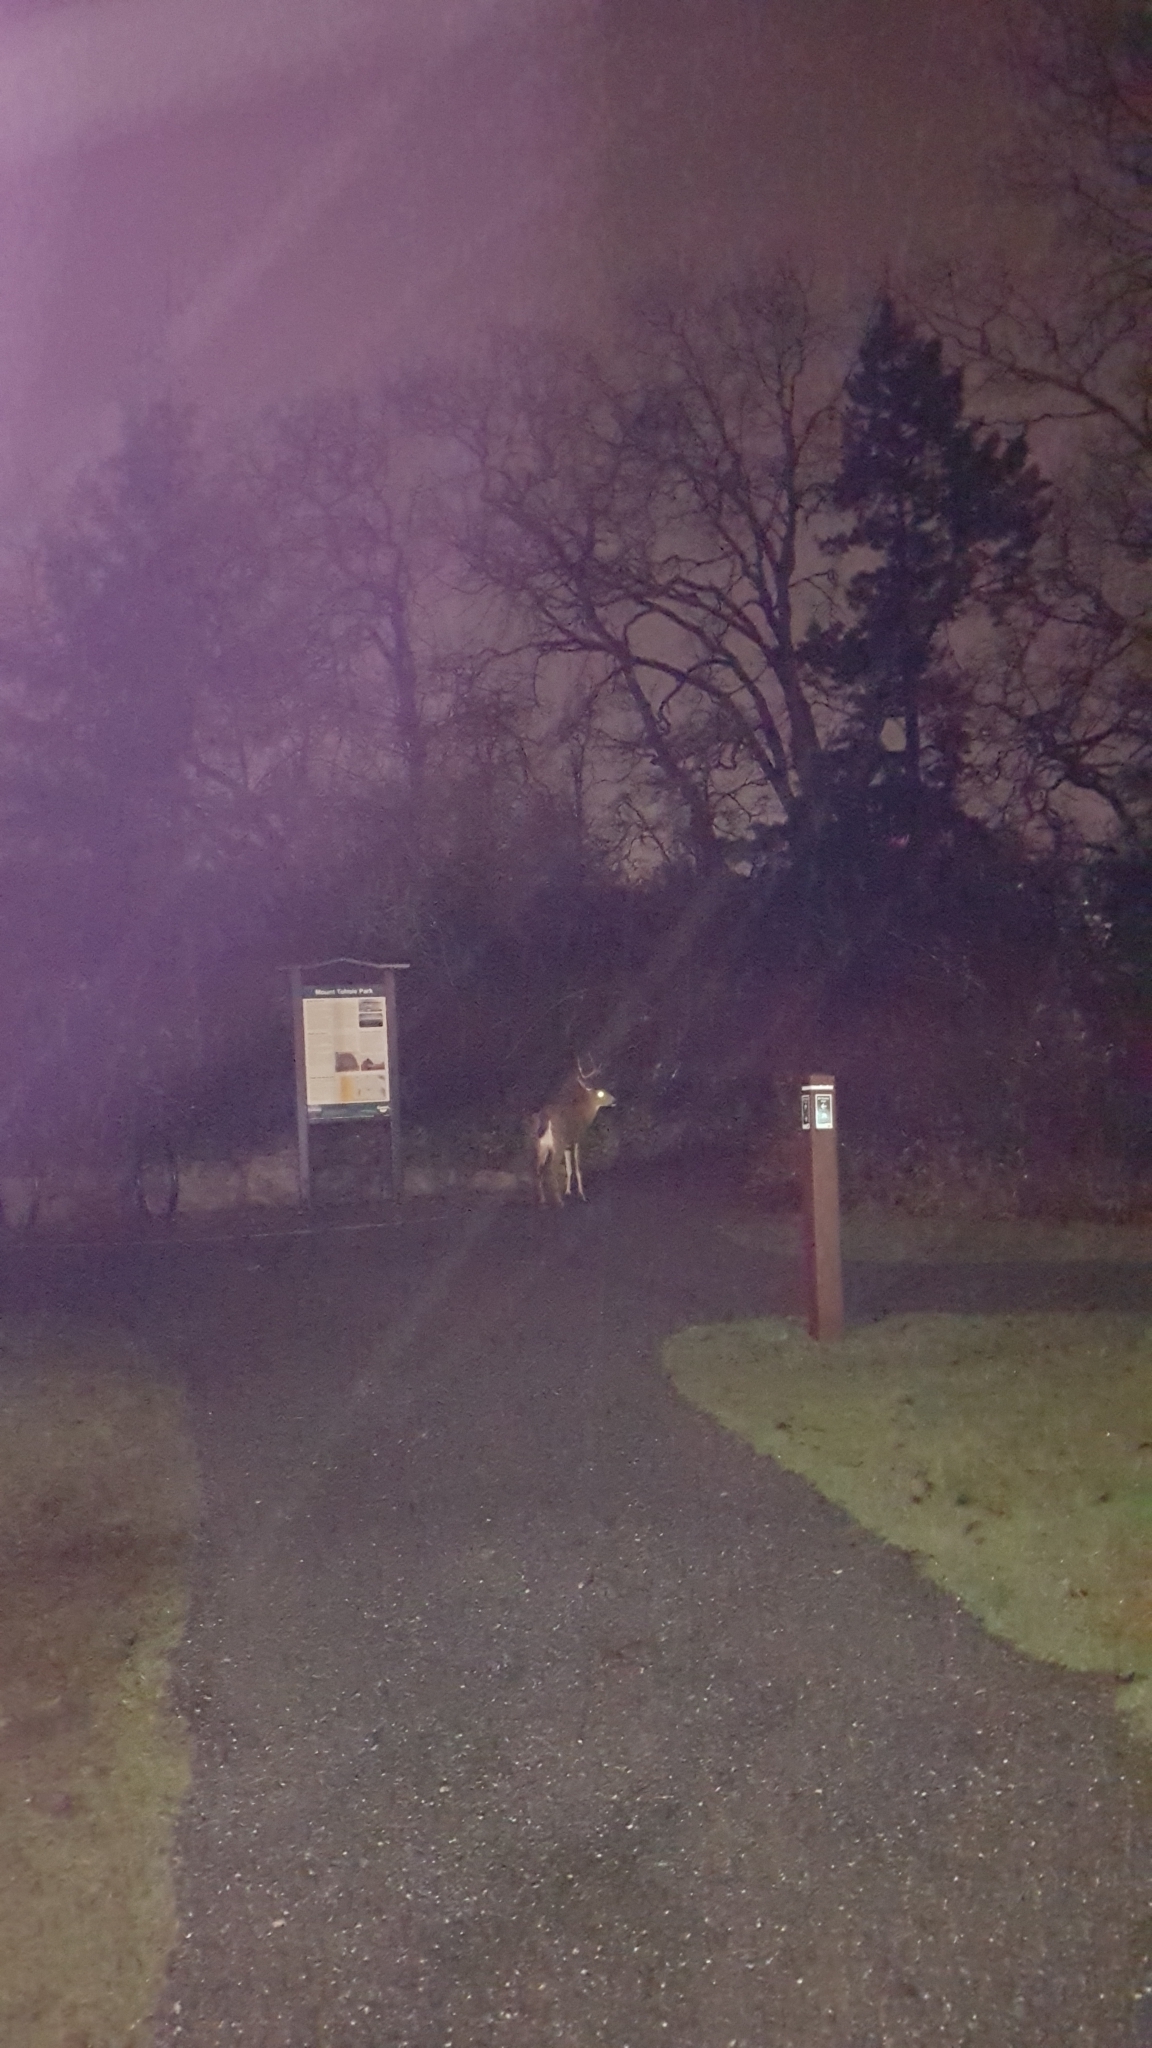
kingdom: Animalia
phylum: Chordata
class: Mammalia
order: Artiodactyla
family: Cervidae
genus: Odocoileus
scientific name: Odocoileus hemionus
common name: Mule deer
